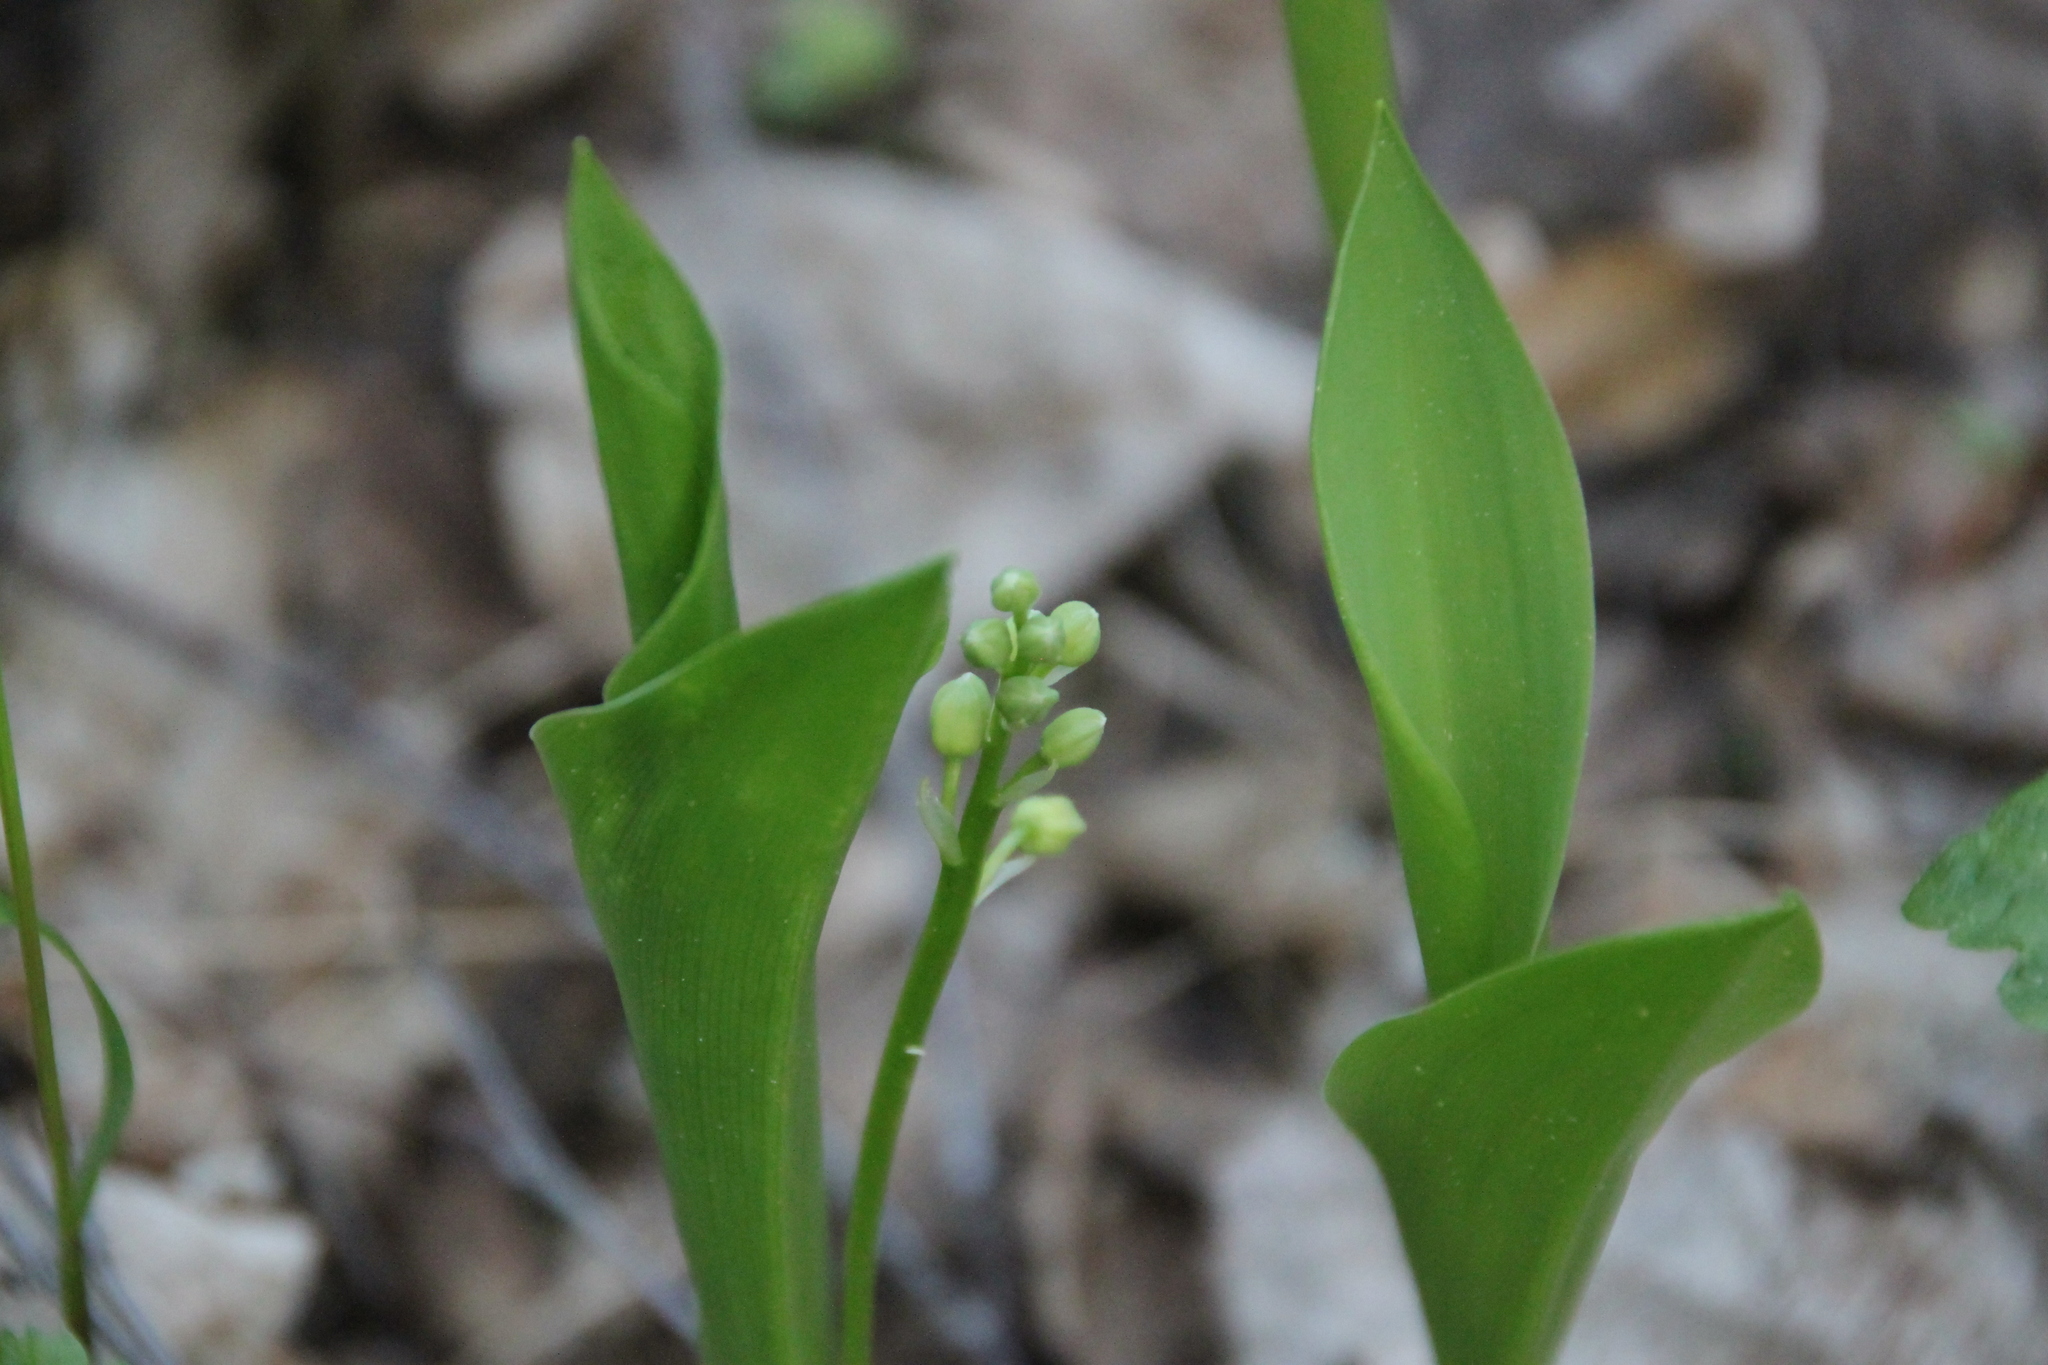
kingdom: Plantae
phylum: Tracheophyta
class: Liliopsida
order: Asparagales
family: Asparagaceae
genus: Convallaria
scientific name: Convallaria majalis
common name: Lily-of-the-valley
